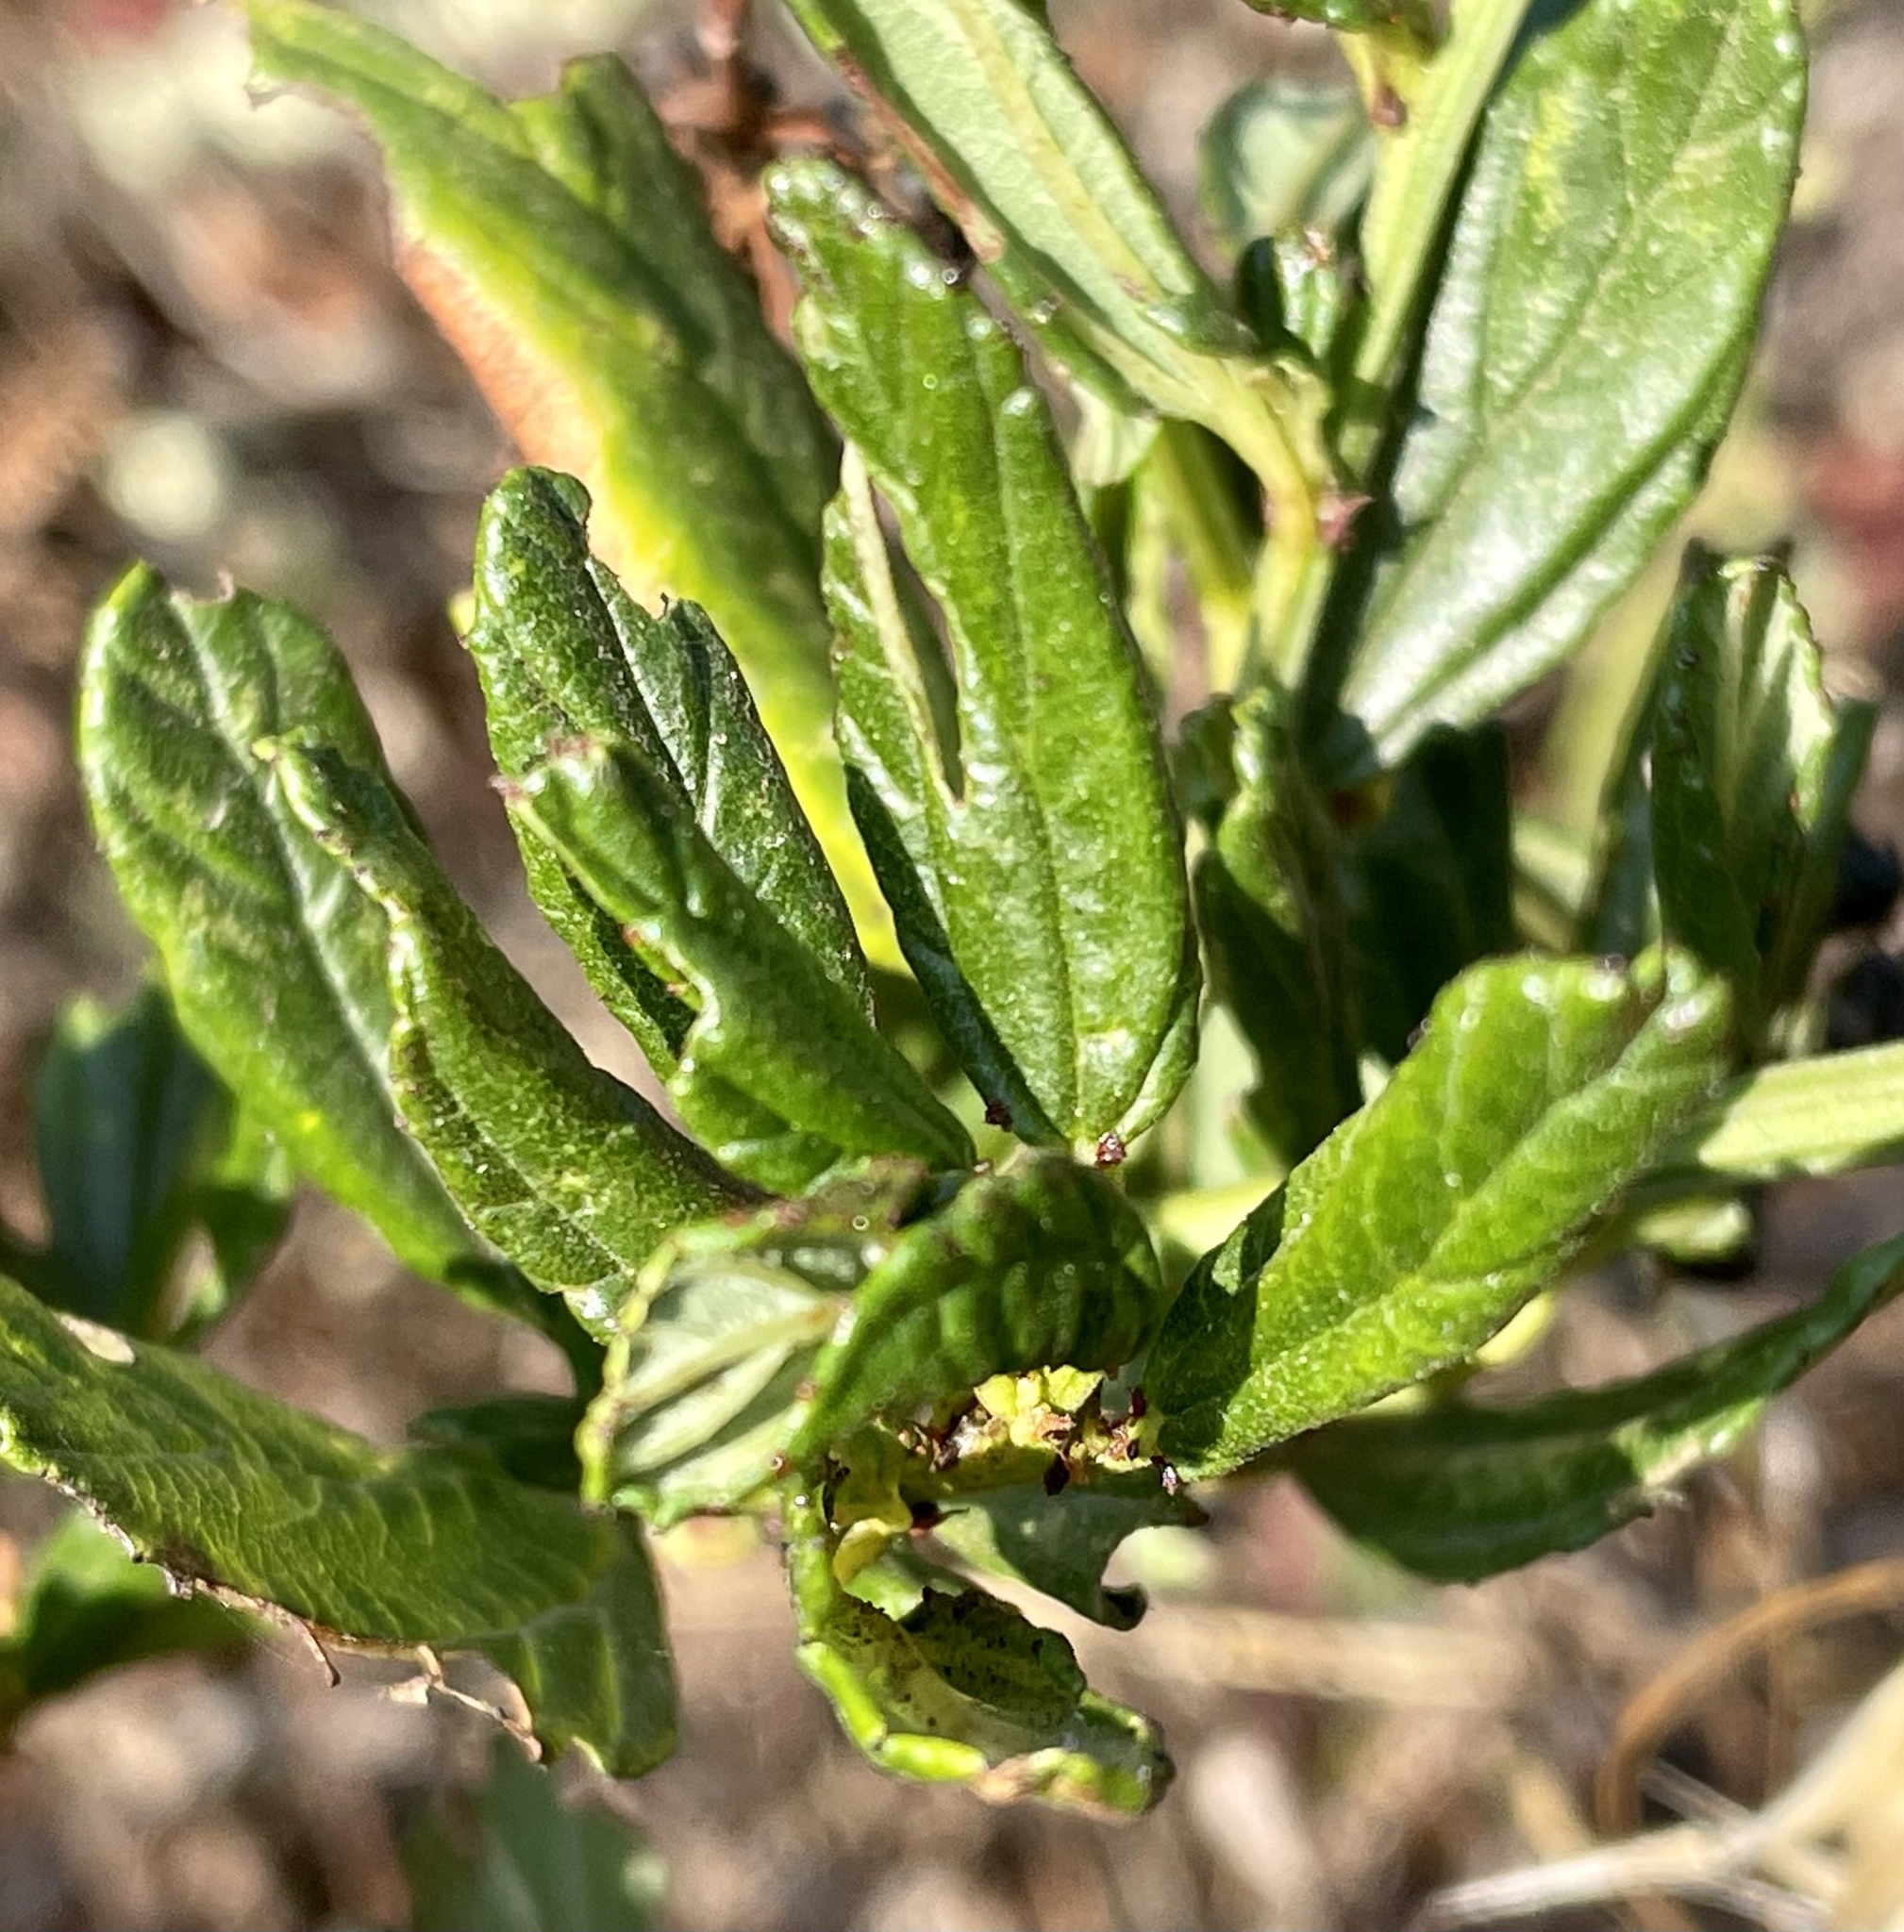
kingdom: Plantae
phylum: Tracheophyta
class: Magnoliopsida
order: Rosales
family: Rhamnaceae
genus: Ceanothus
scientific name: Ceanothus griseus
